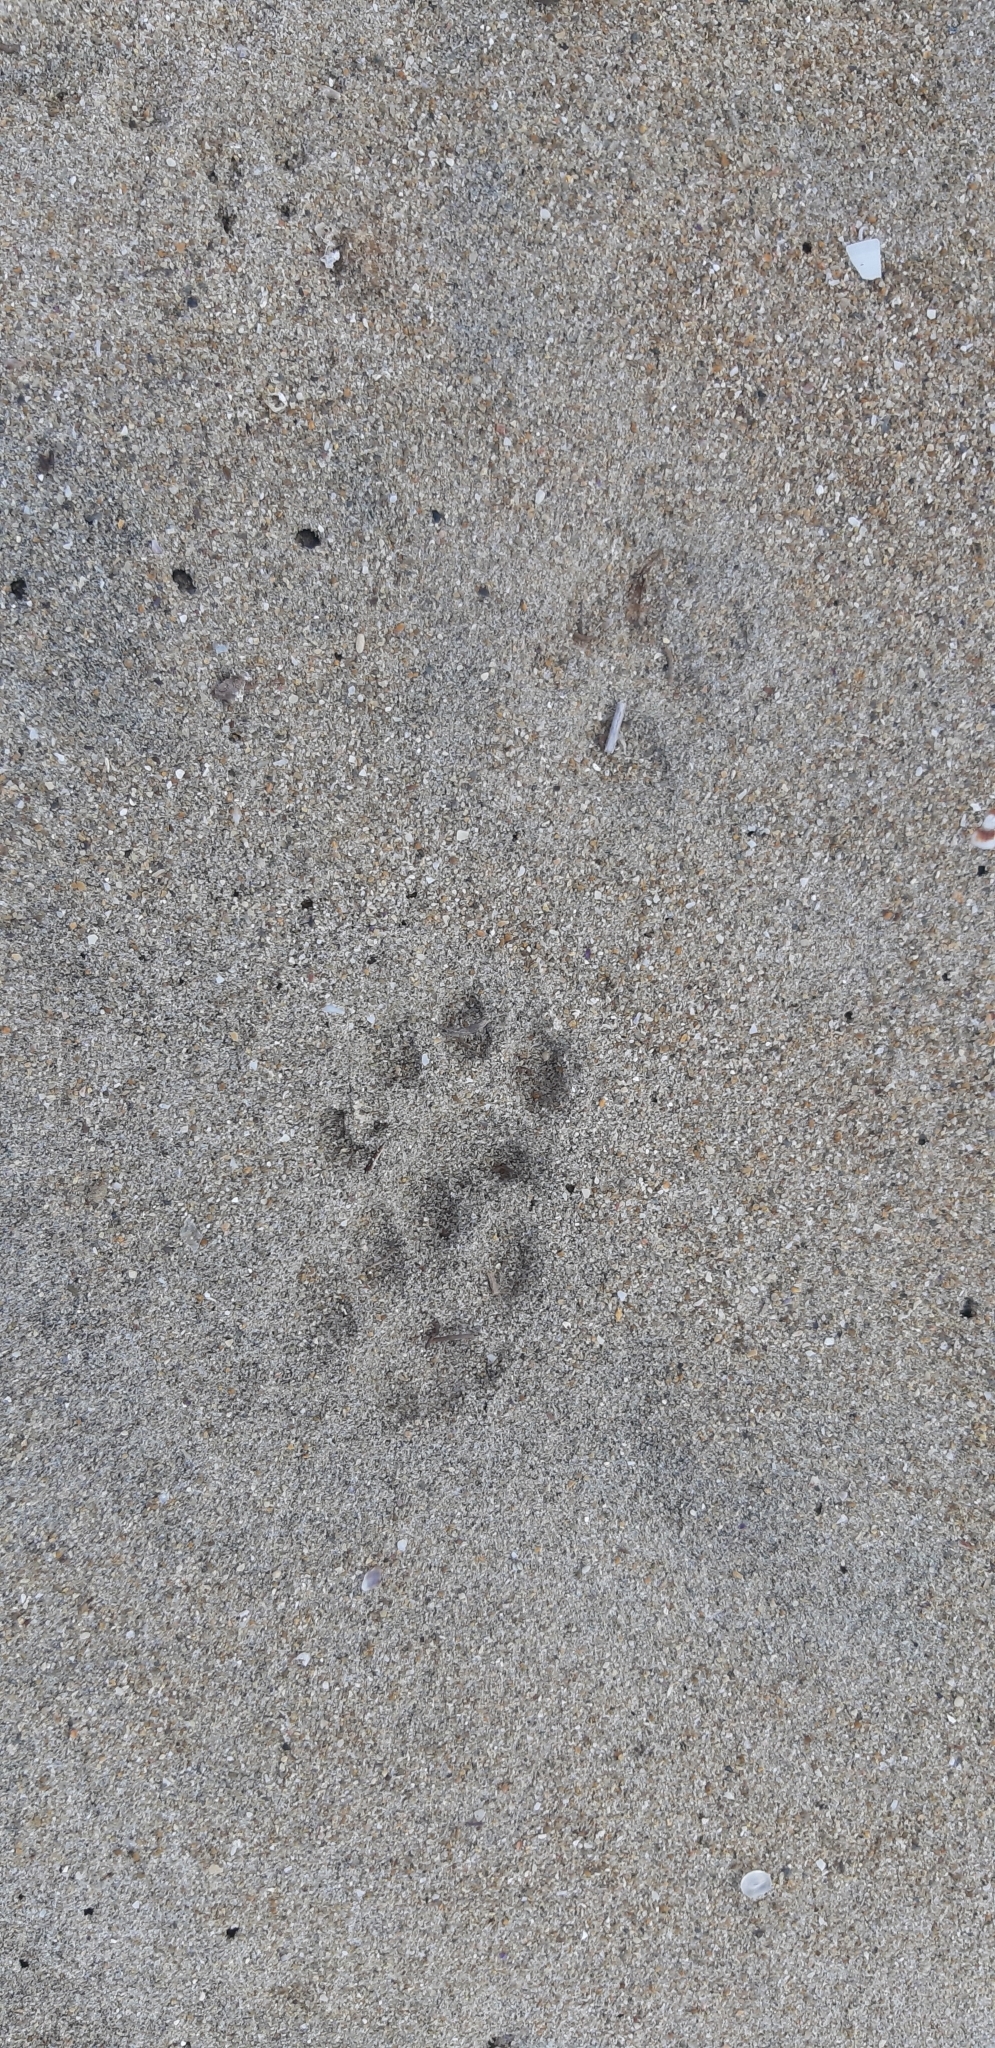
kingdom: Animalia
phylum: Chordata
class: Mammalia
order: Carnivora
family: Mustelidae
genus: Martes
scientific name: Martes foina
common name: Beech marten
